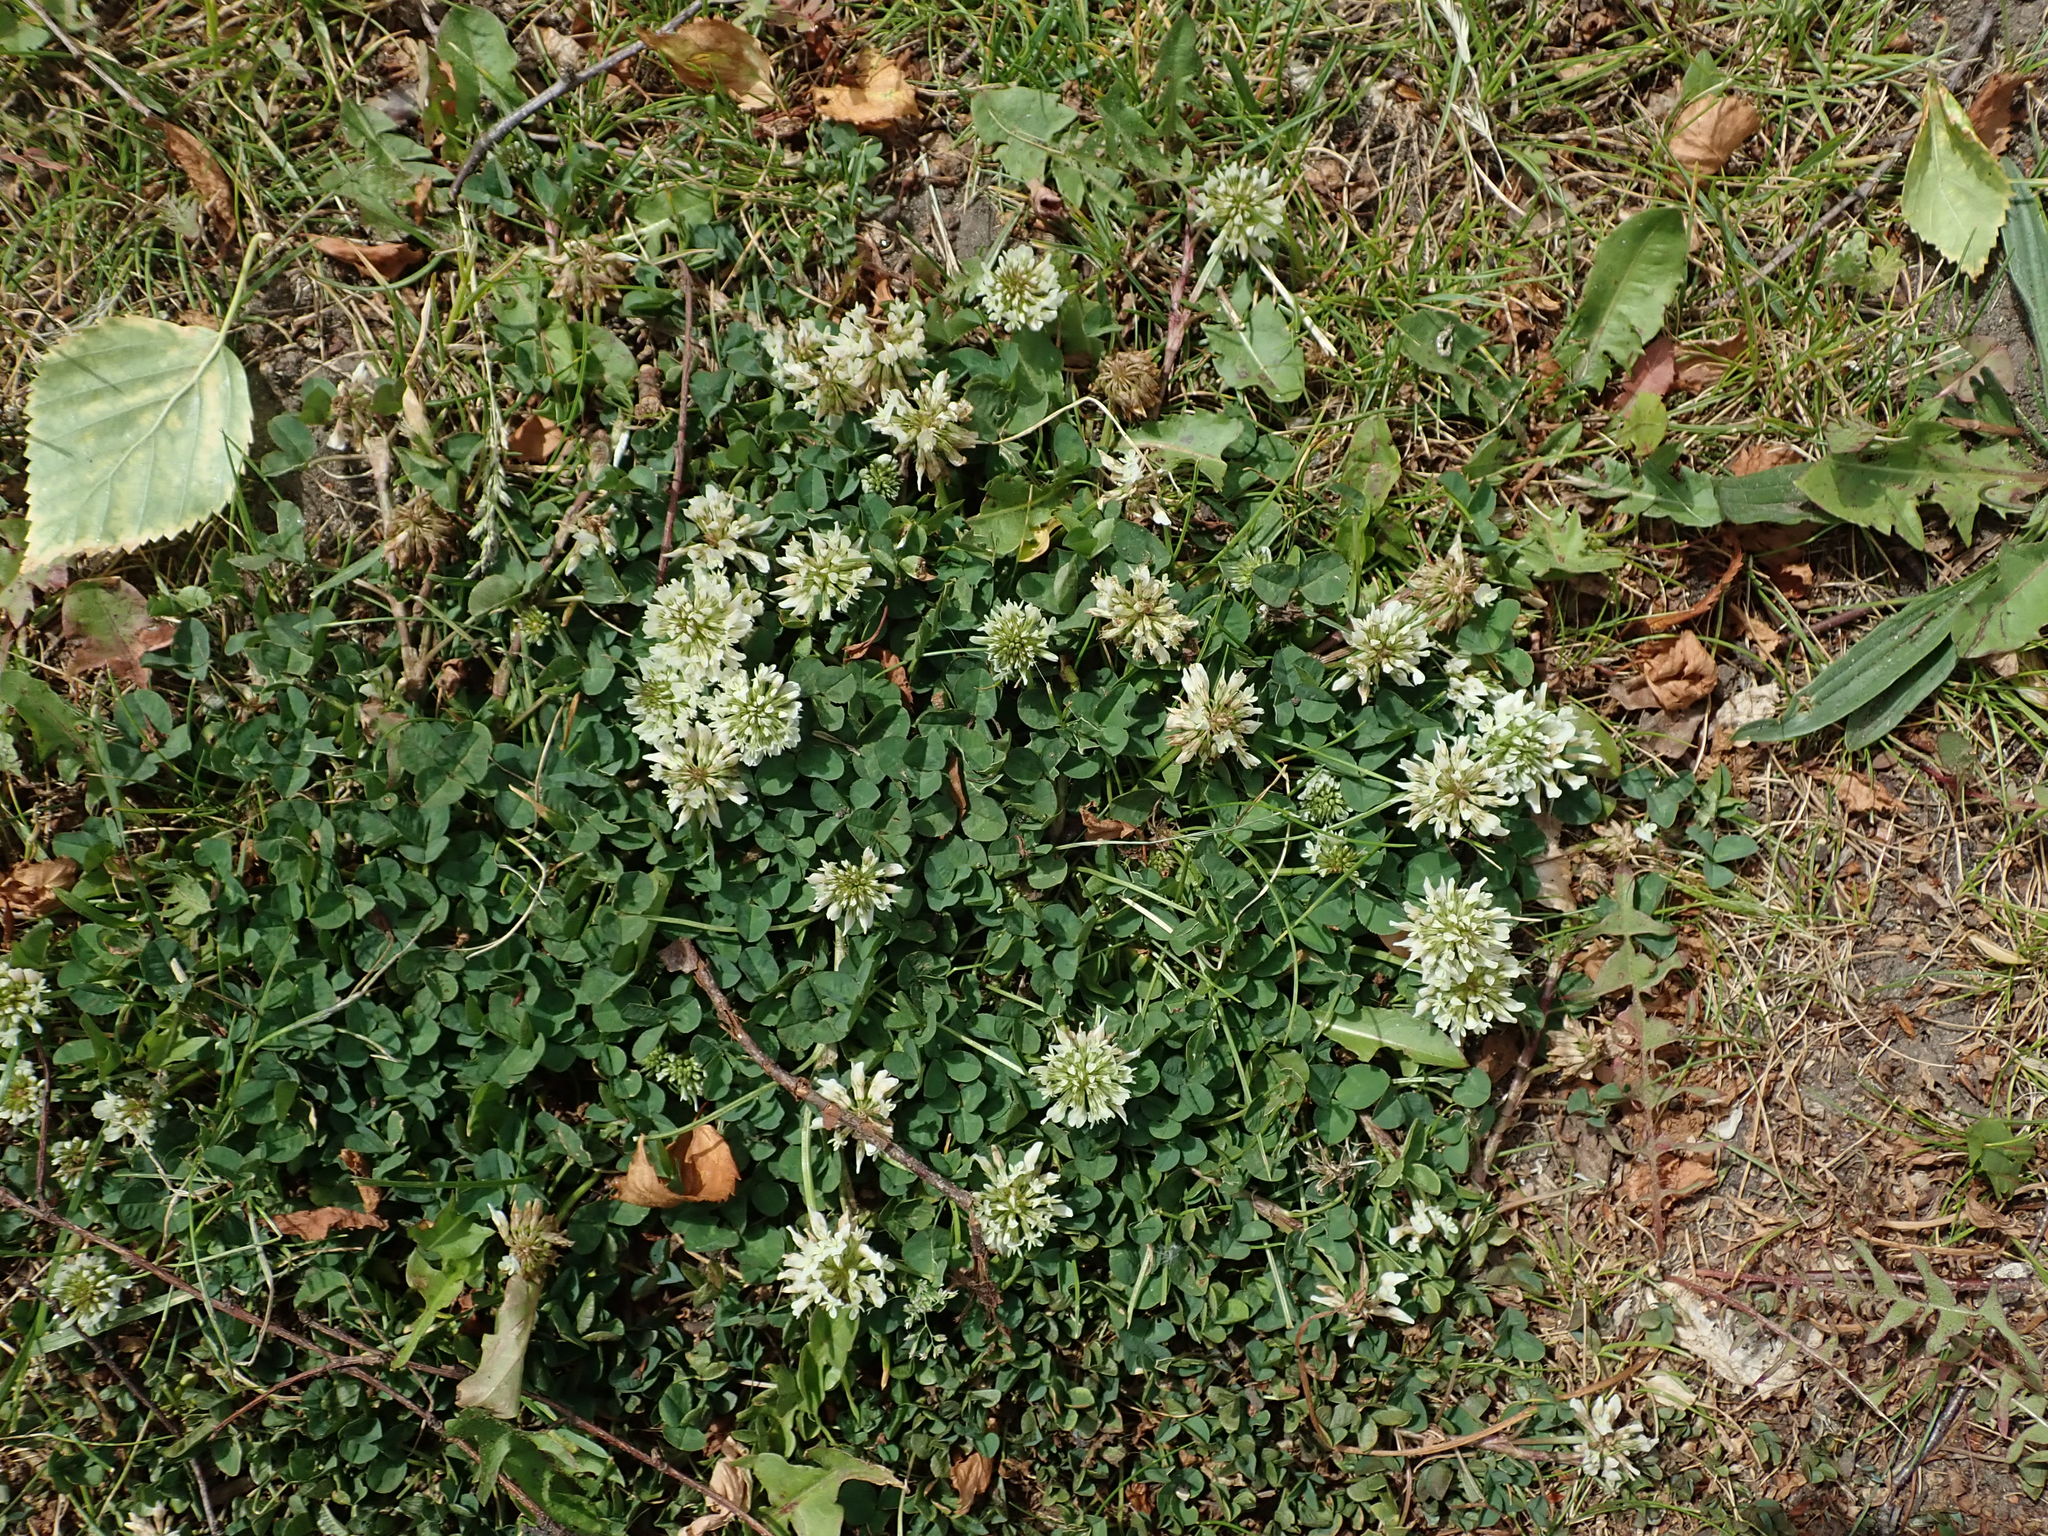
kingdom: Plantae
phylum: Tracheophyta
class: Magnoliopsida
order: Fabales
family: Fabaceae
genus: Trifolium
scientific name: Trifolium repens
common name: White clover
